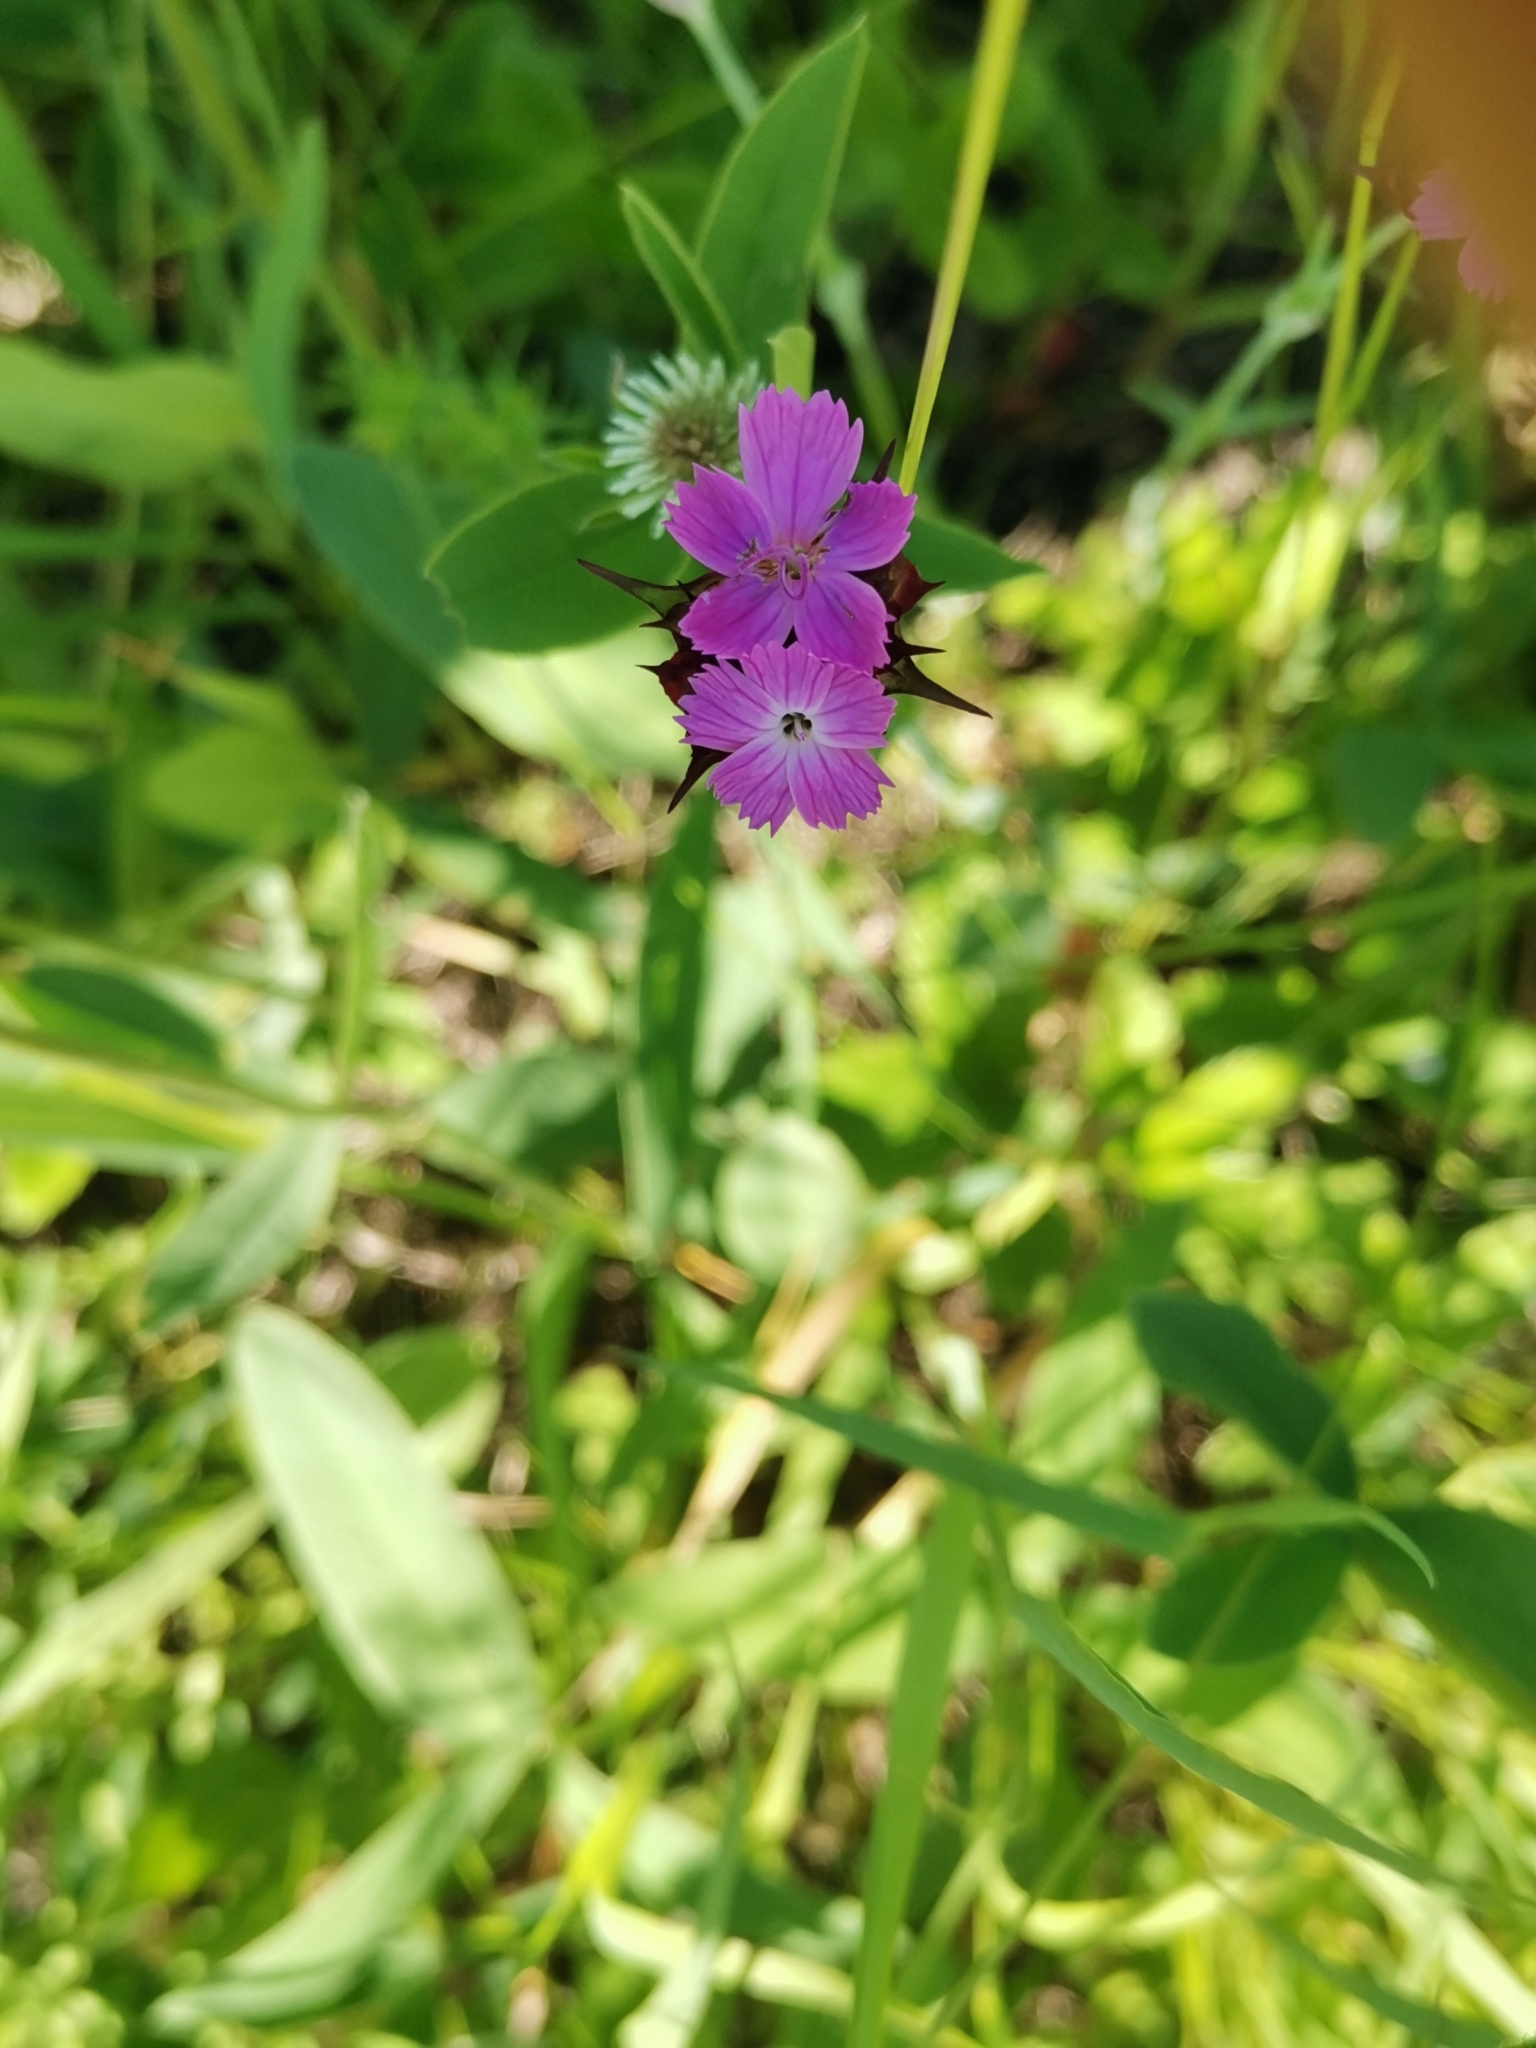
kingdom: Plantae
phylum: Tracheophyta
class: Magnoliopsida
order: Caryophyllales
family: Caryophyllaceae
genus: Dianthus
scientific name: Dianthus capitatus
